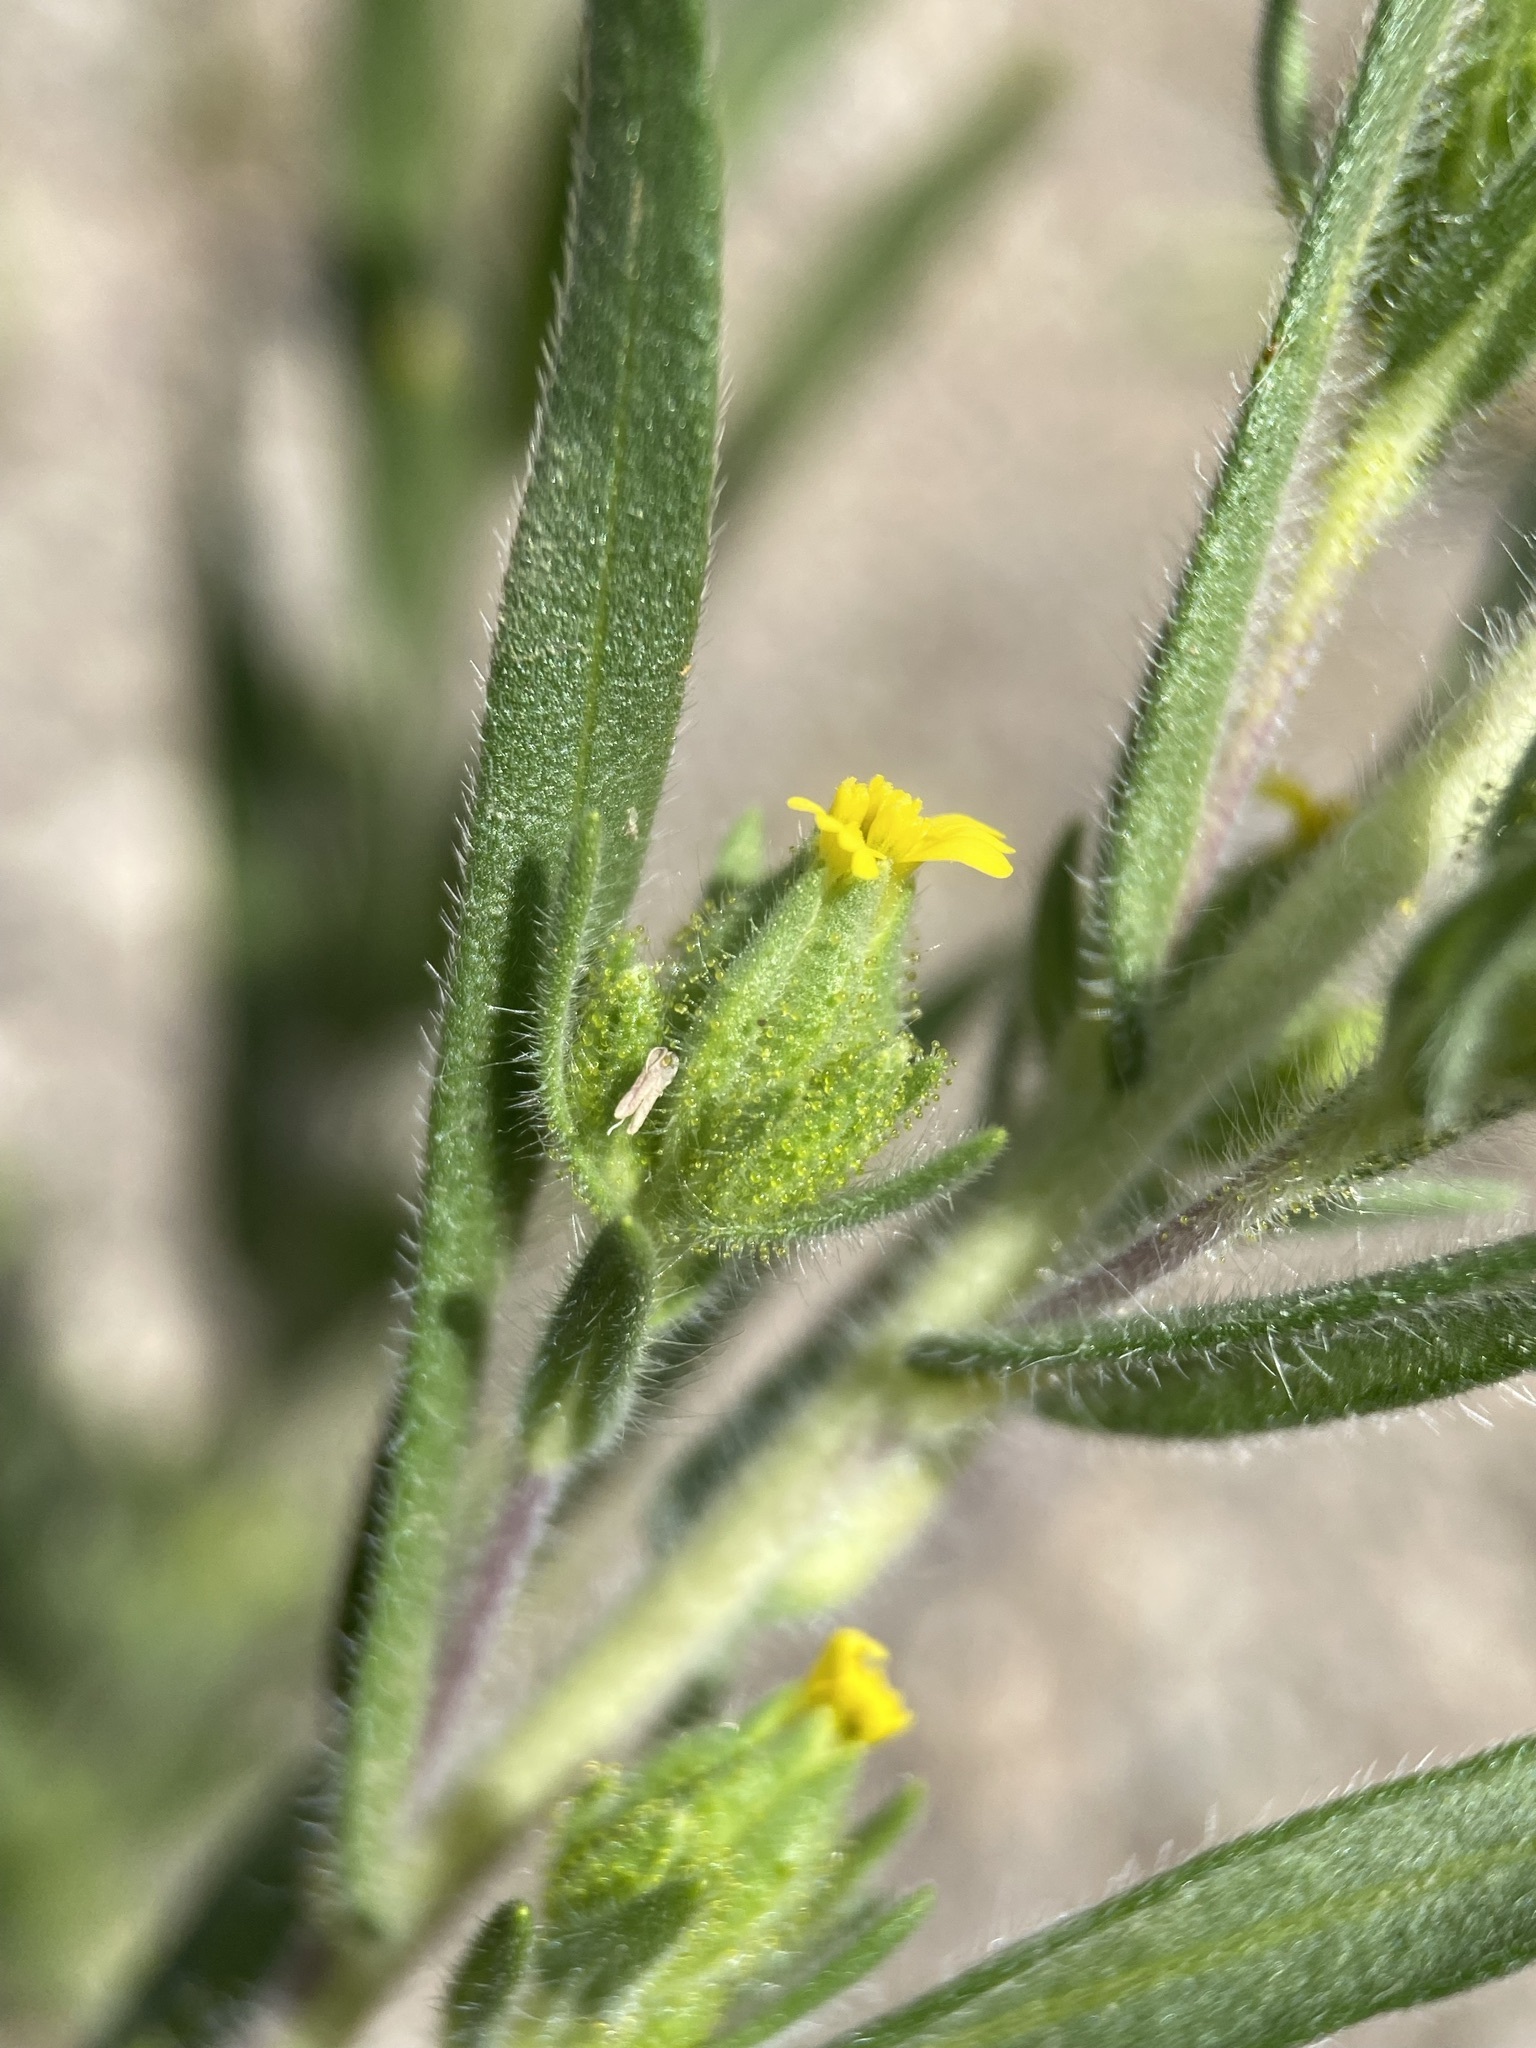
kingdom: Plantae
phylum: Tracheophyta
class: Magnoliopsida
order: Asterales
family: Asteraceae
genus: Madia
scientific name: Madia glomerata
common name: Mountain tarweed
